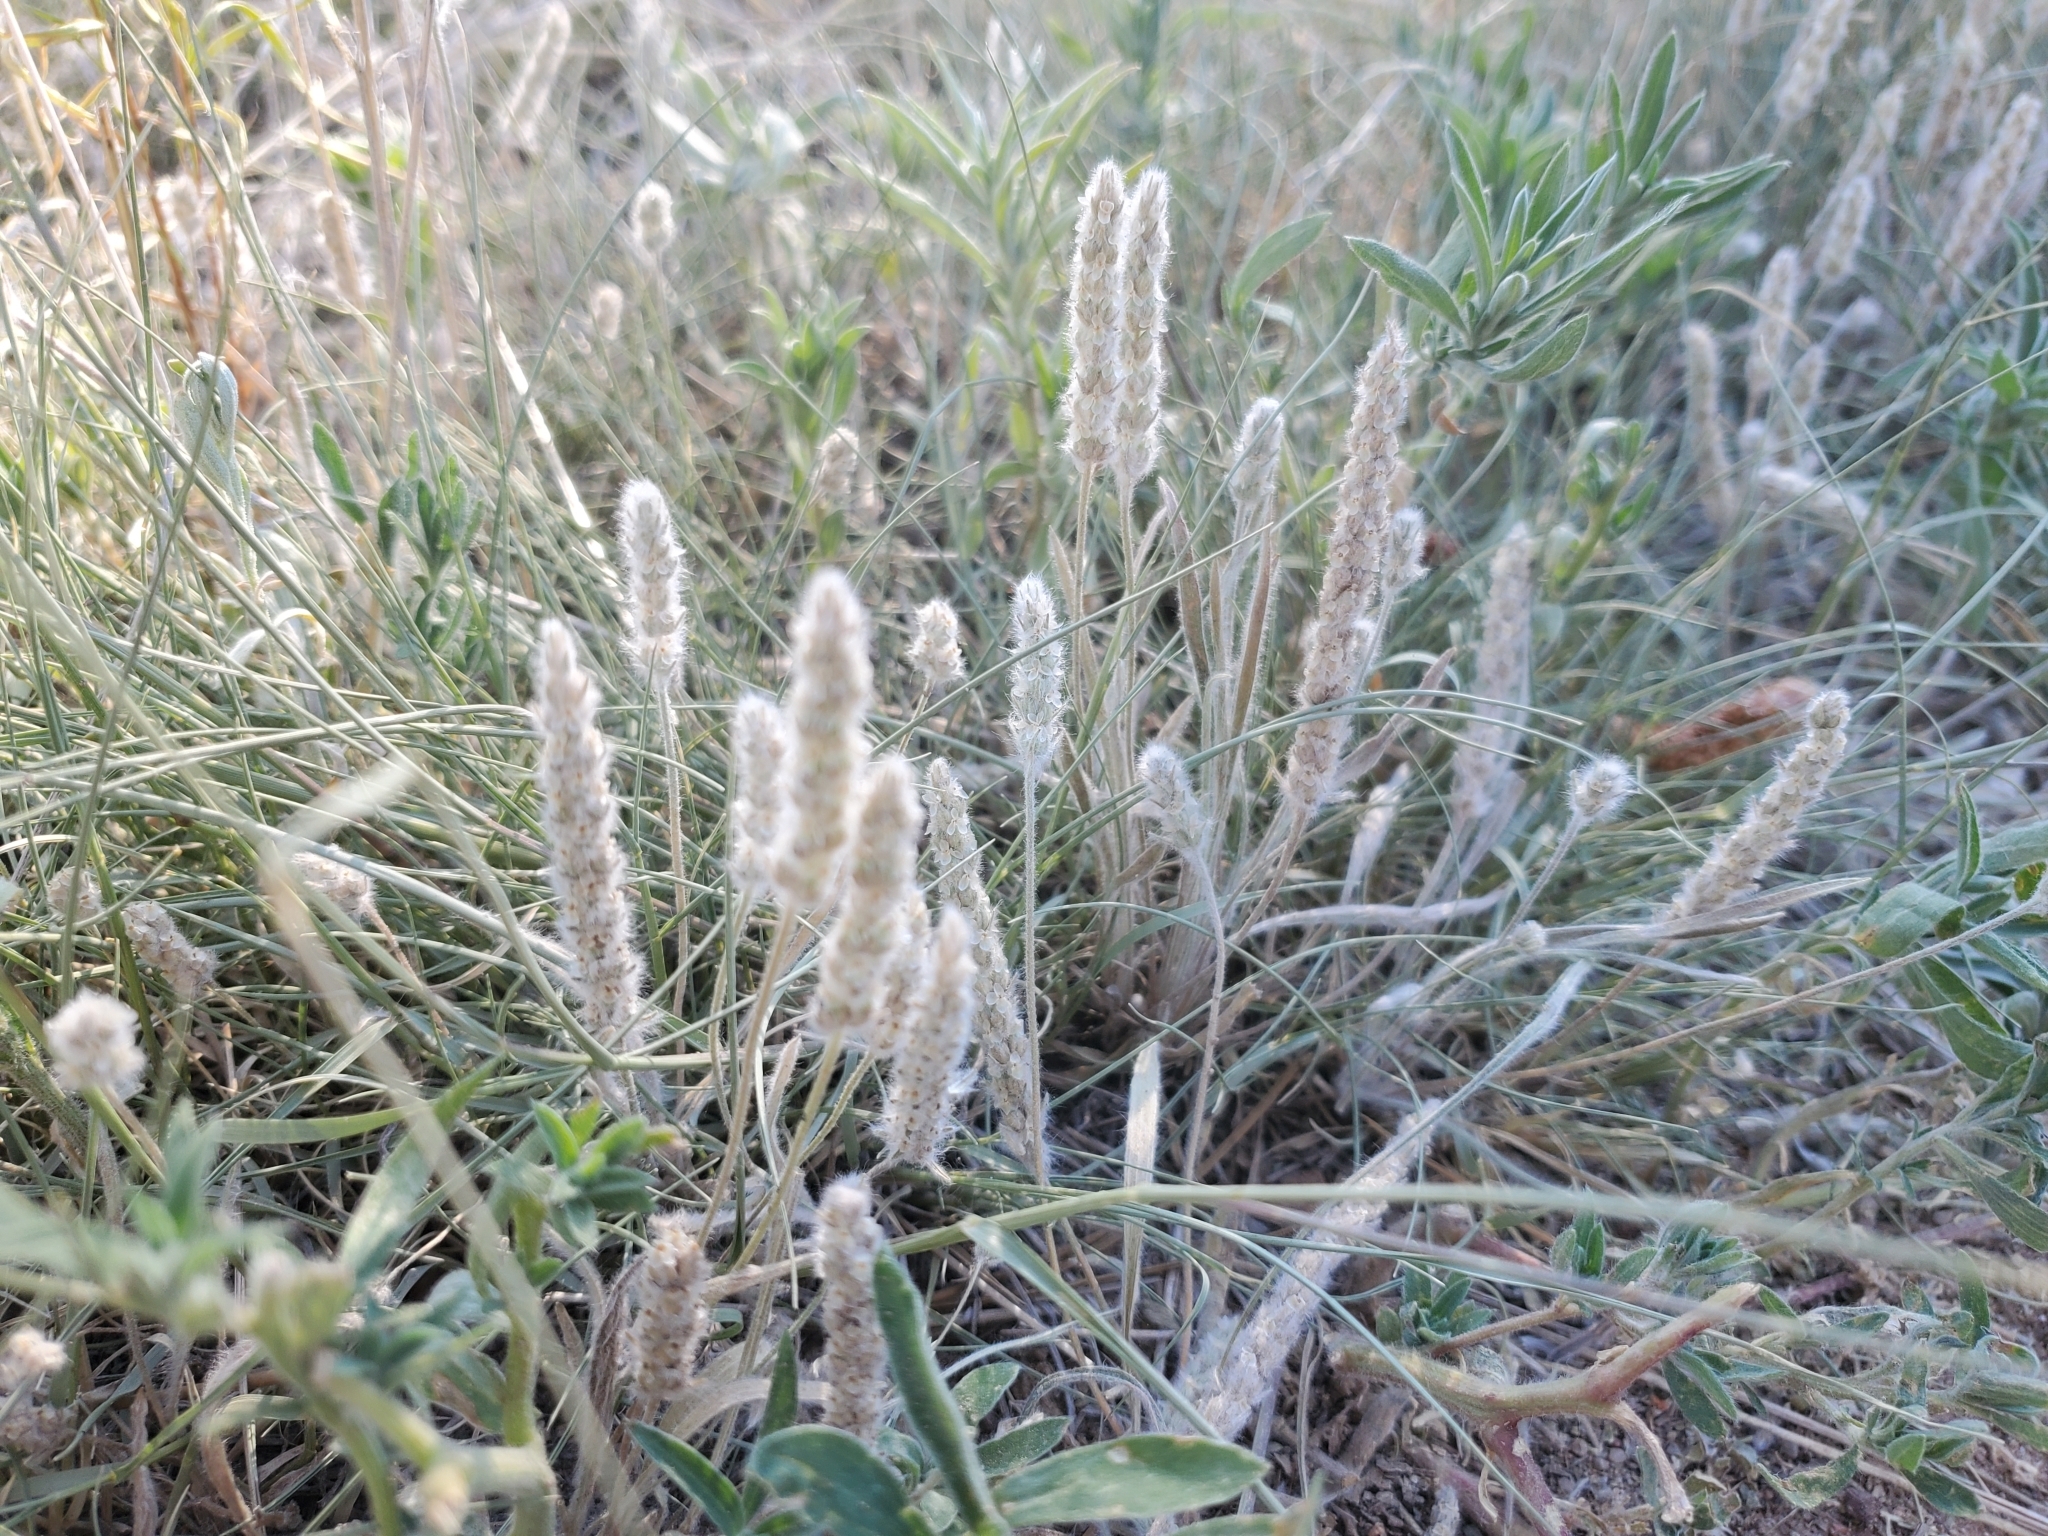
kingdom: Plantae
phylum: Tracheophyta
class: Magnoliopsida
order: Lamiales
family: Plantaginaceae
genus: Plantago
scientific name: Plantago patagonica
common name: Patagonia indian-wheat
